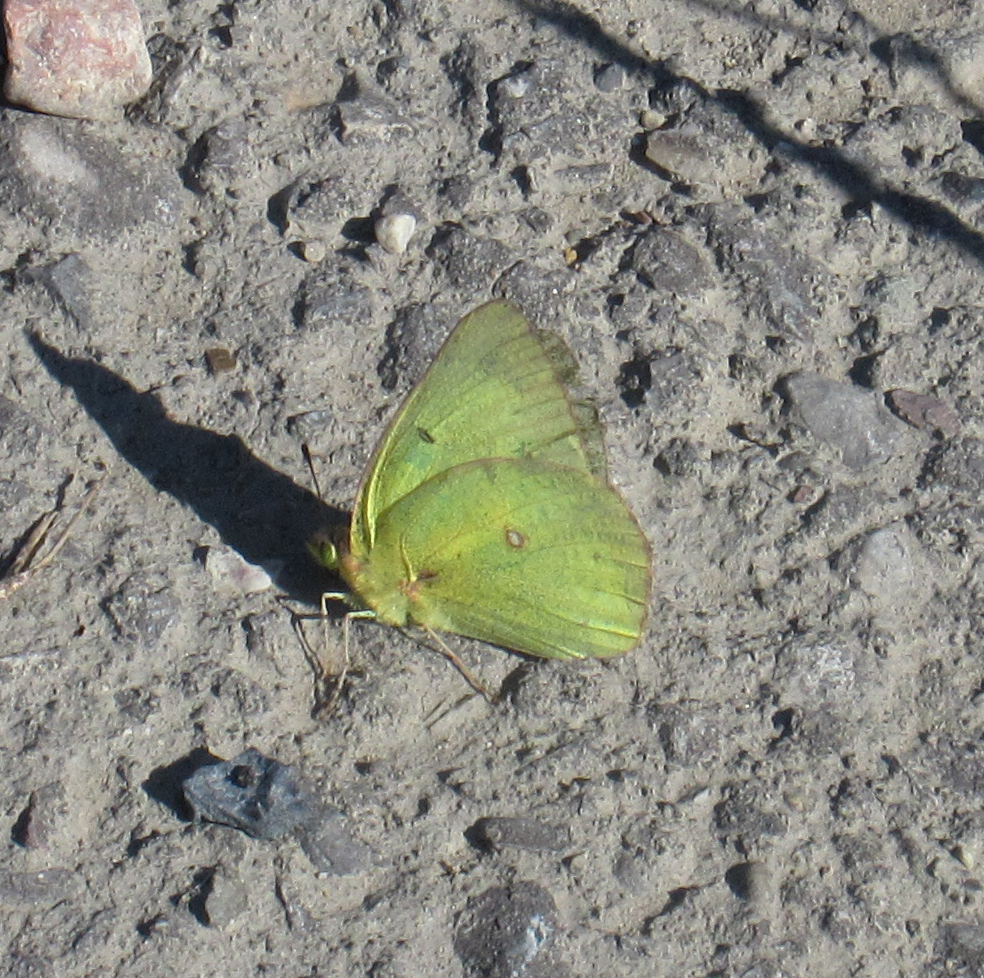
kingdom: Animalia
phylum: Arthropoda
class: Insecta
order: Lepidoptera
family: Pieridae
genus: Colias
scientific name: Colias philodice
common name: Clouded sulphur
